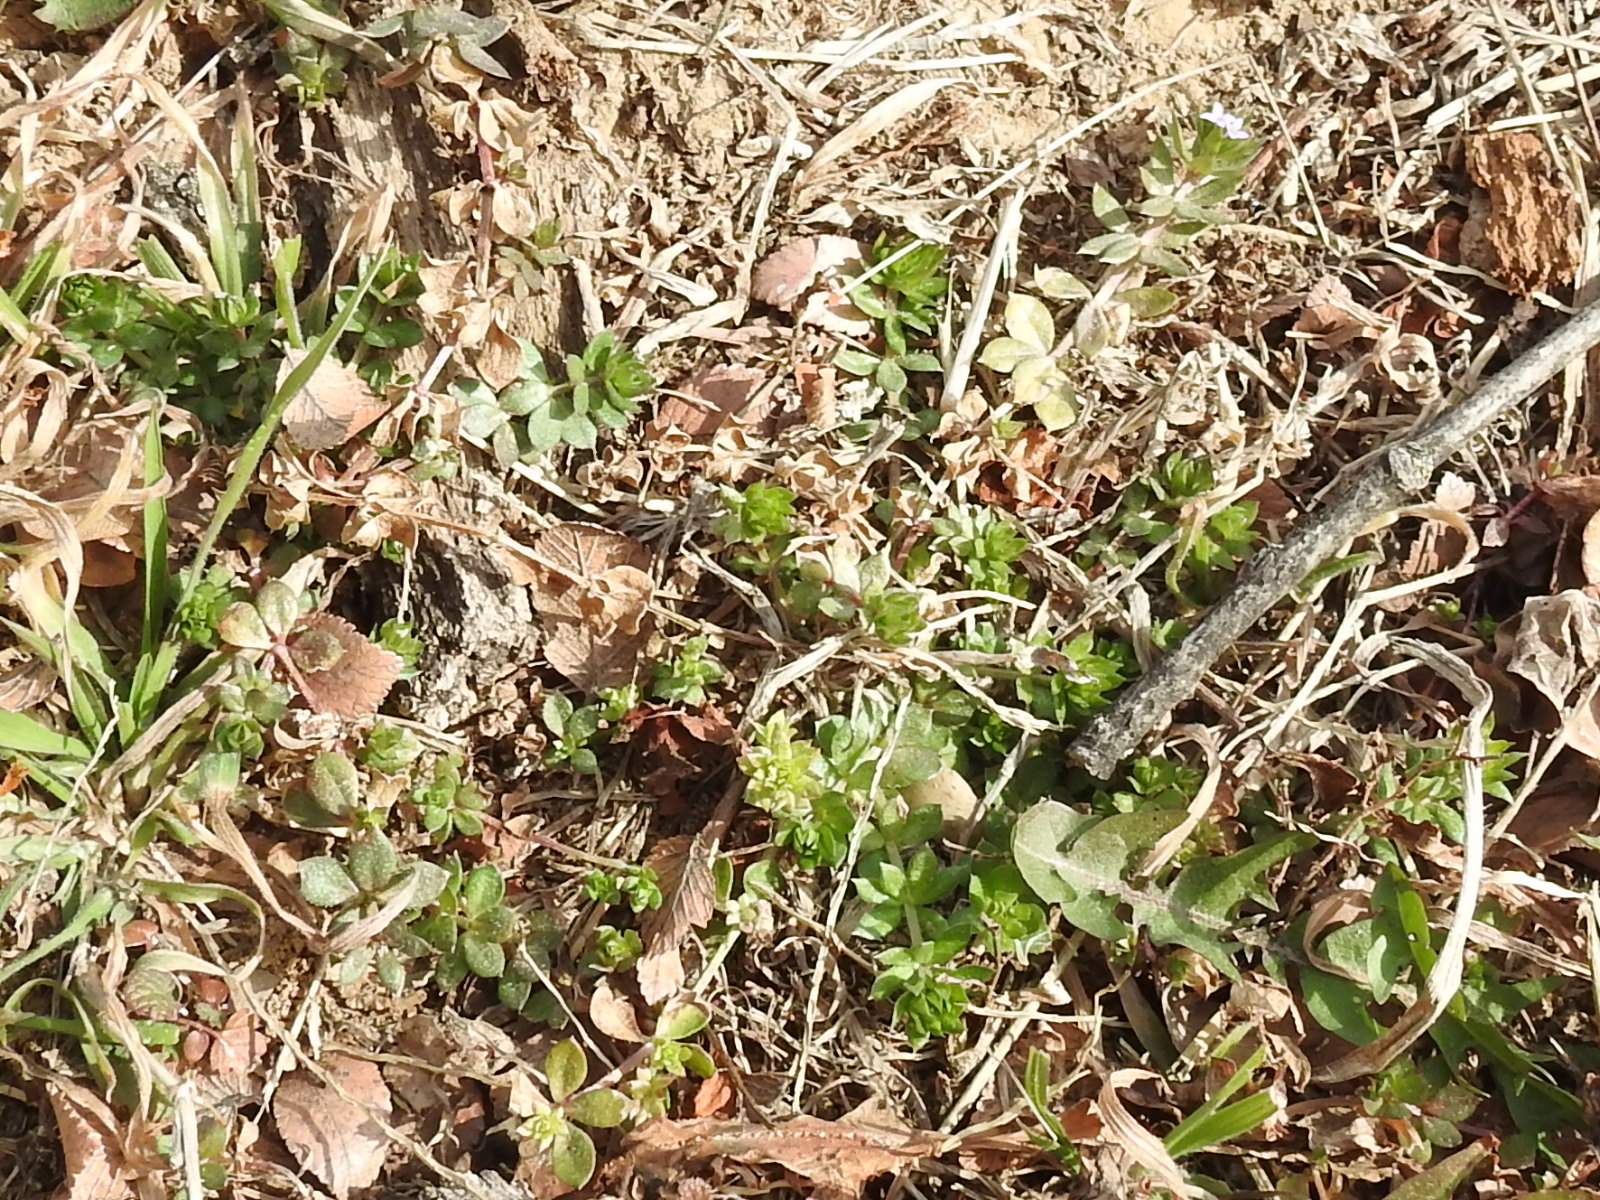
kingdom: Plantae
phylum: Tracheophyta
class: Magnoliopsida
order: Gentianales
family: Rubiaceae
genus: Sherardia
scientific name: Sherardia arvensis
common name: Field madder
